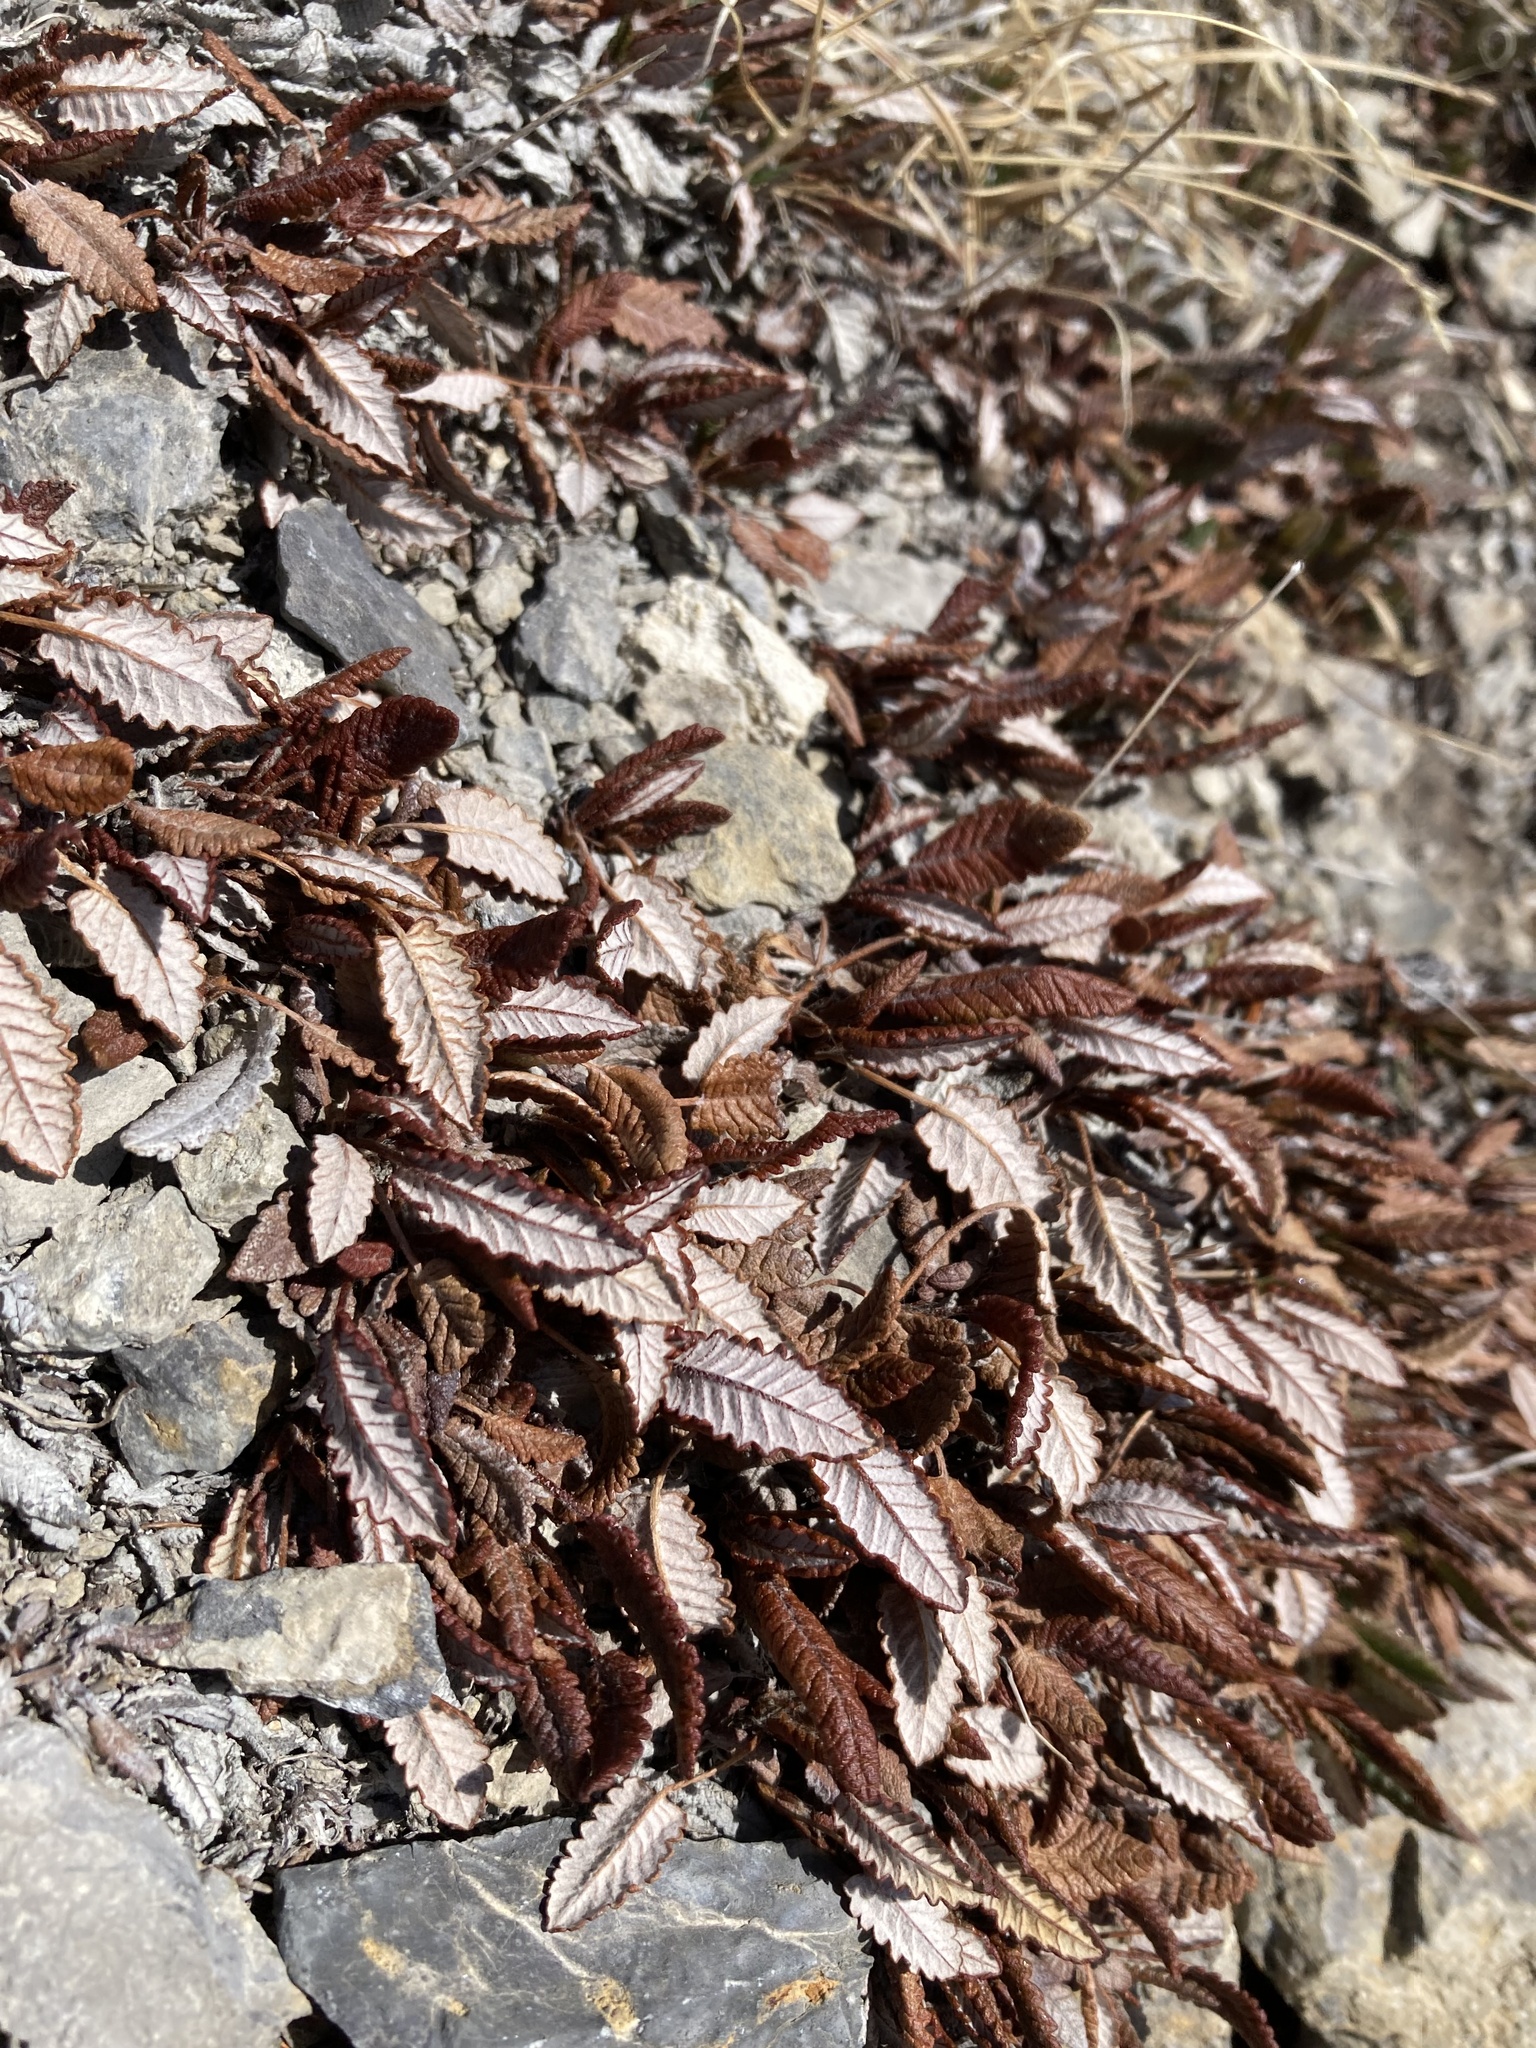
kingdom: Plantae
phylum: Tracheophyta
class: Magnoliopsida
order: Rosales
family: Rosaceae
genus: Dryas
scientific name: Dryas octopetala
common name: Eight-petal mountain-avens
